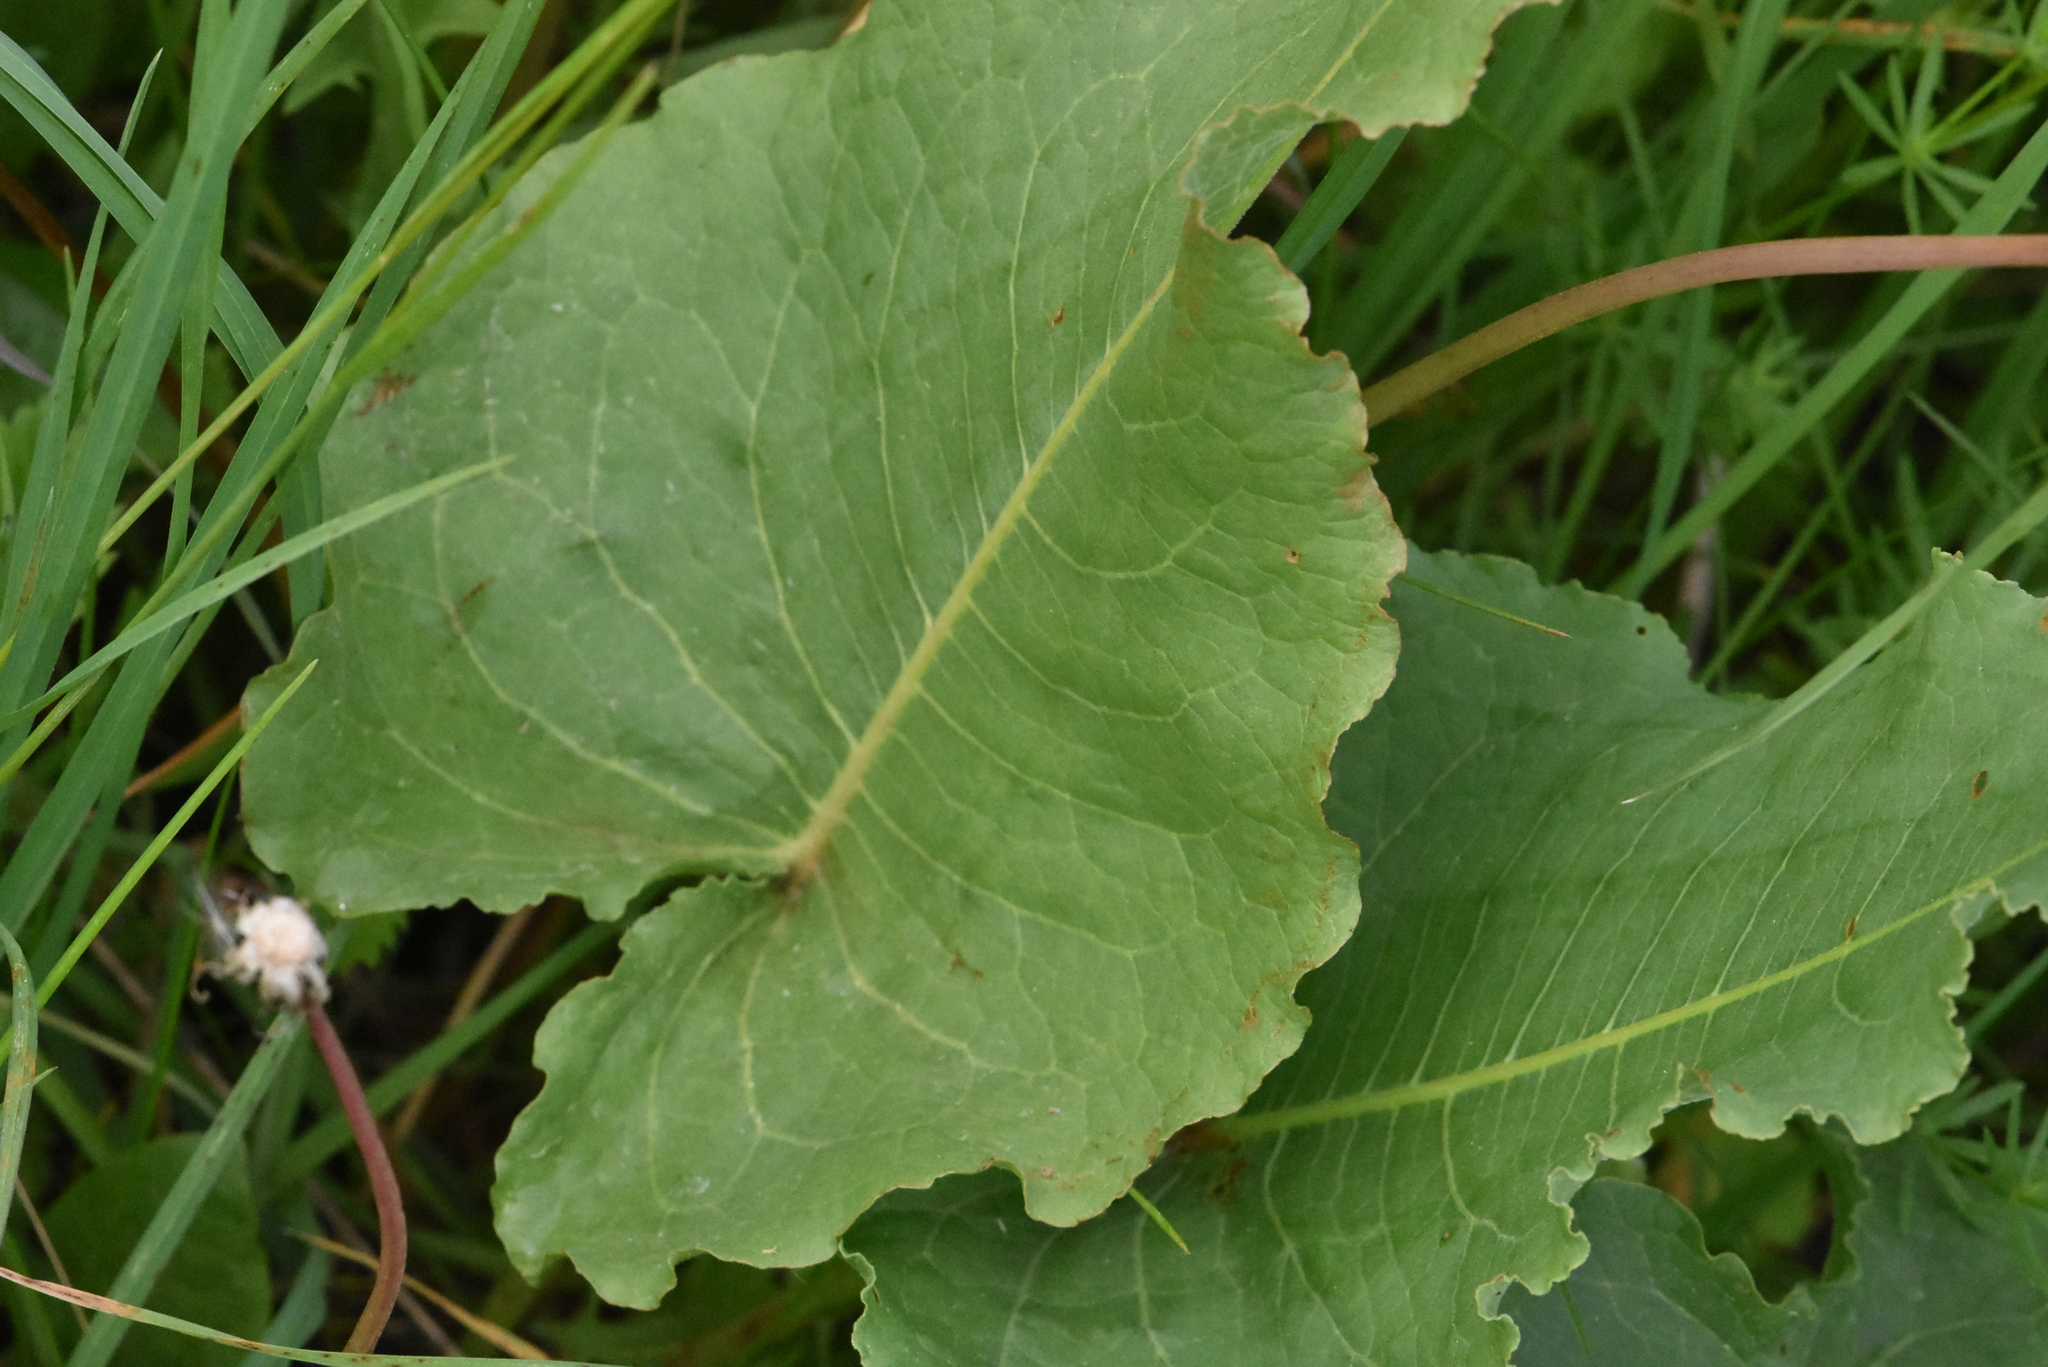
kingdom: Plantae
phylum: Tracheophyta
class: Magnoliopsida
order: Caryophyllales
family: Polygonaceae
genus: Rumex
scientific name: Rumex confertus
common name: Russian dock
